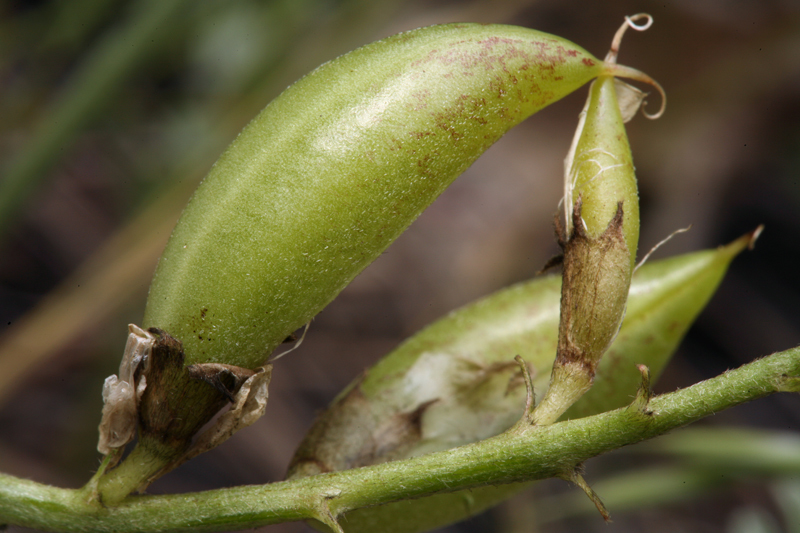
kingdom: Plantae
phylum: Tracheophyta
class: Magnoliopsida
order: Fabales
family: Fabaceae
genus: Astragalus
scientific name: Astragalus webberi
